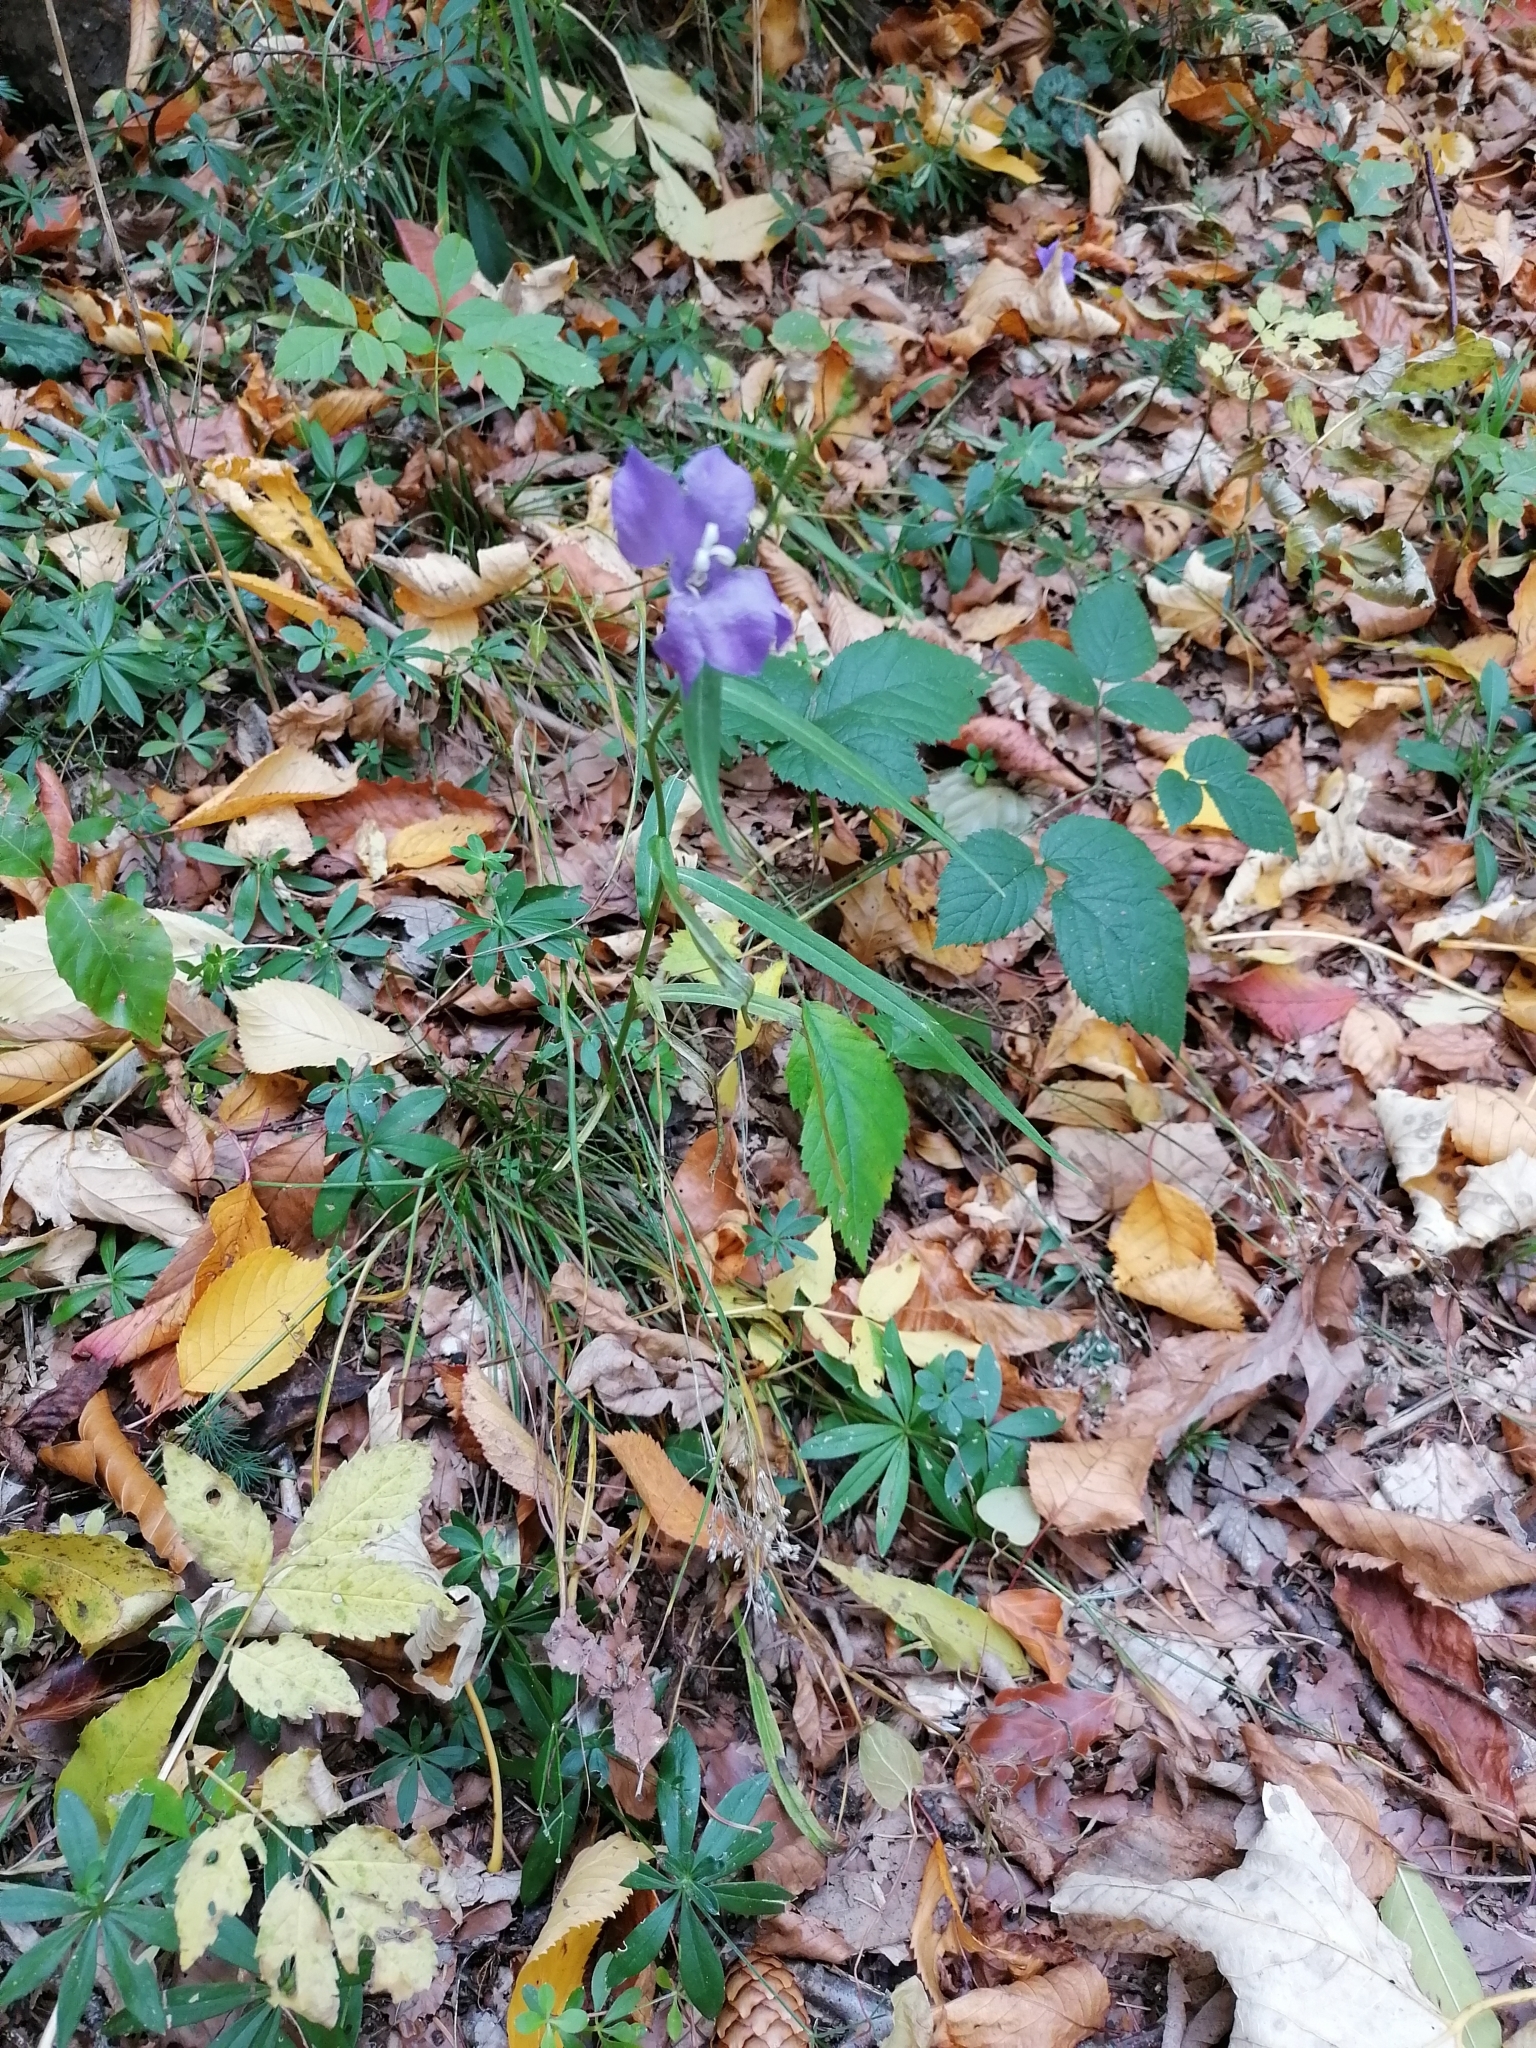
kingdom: Plantae
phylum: Tracheophyta
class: Magnoliopsida
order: Asterales
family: Campanulaceae
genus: Campanula
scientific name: Campanula persicifolia
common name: Peach-leaved bellflower
